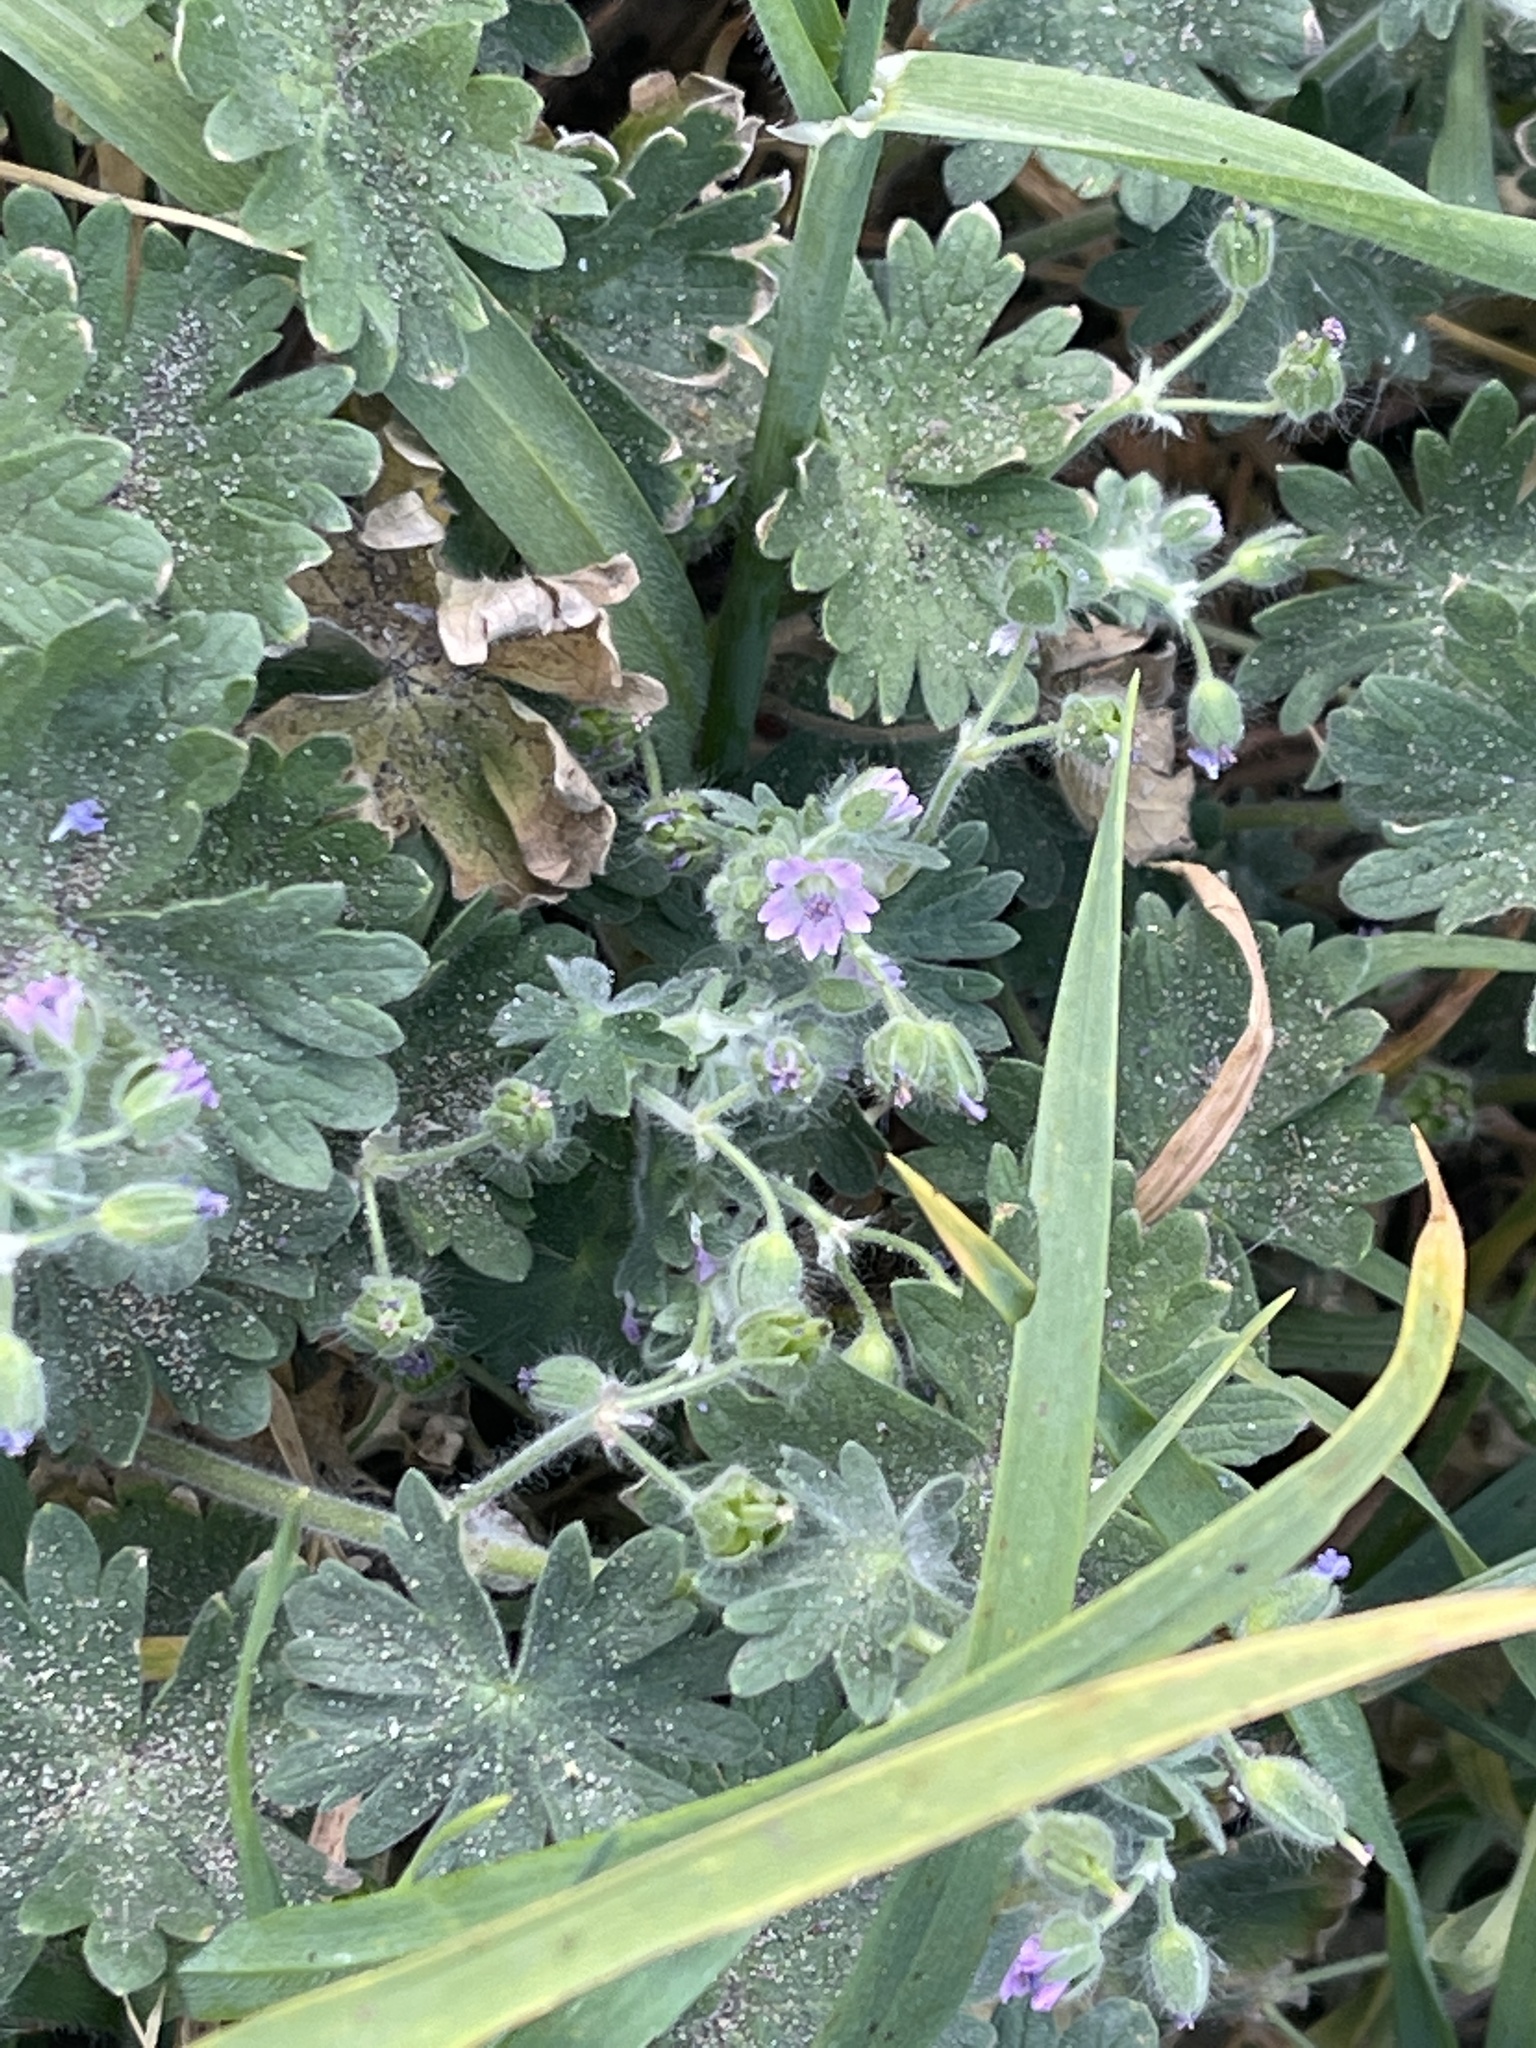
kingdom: Plantae
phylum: Tracheophyta
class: Magnoliopsida
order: Geraniales
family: Geraniaceae
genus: Geranium
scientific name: Geranium molle
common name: Dove's-foot crane's-bill
